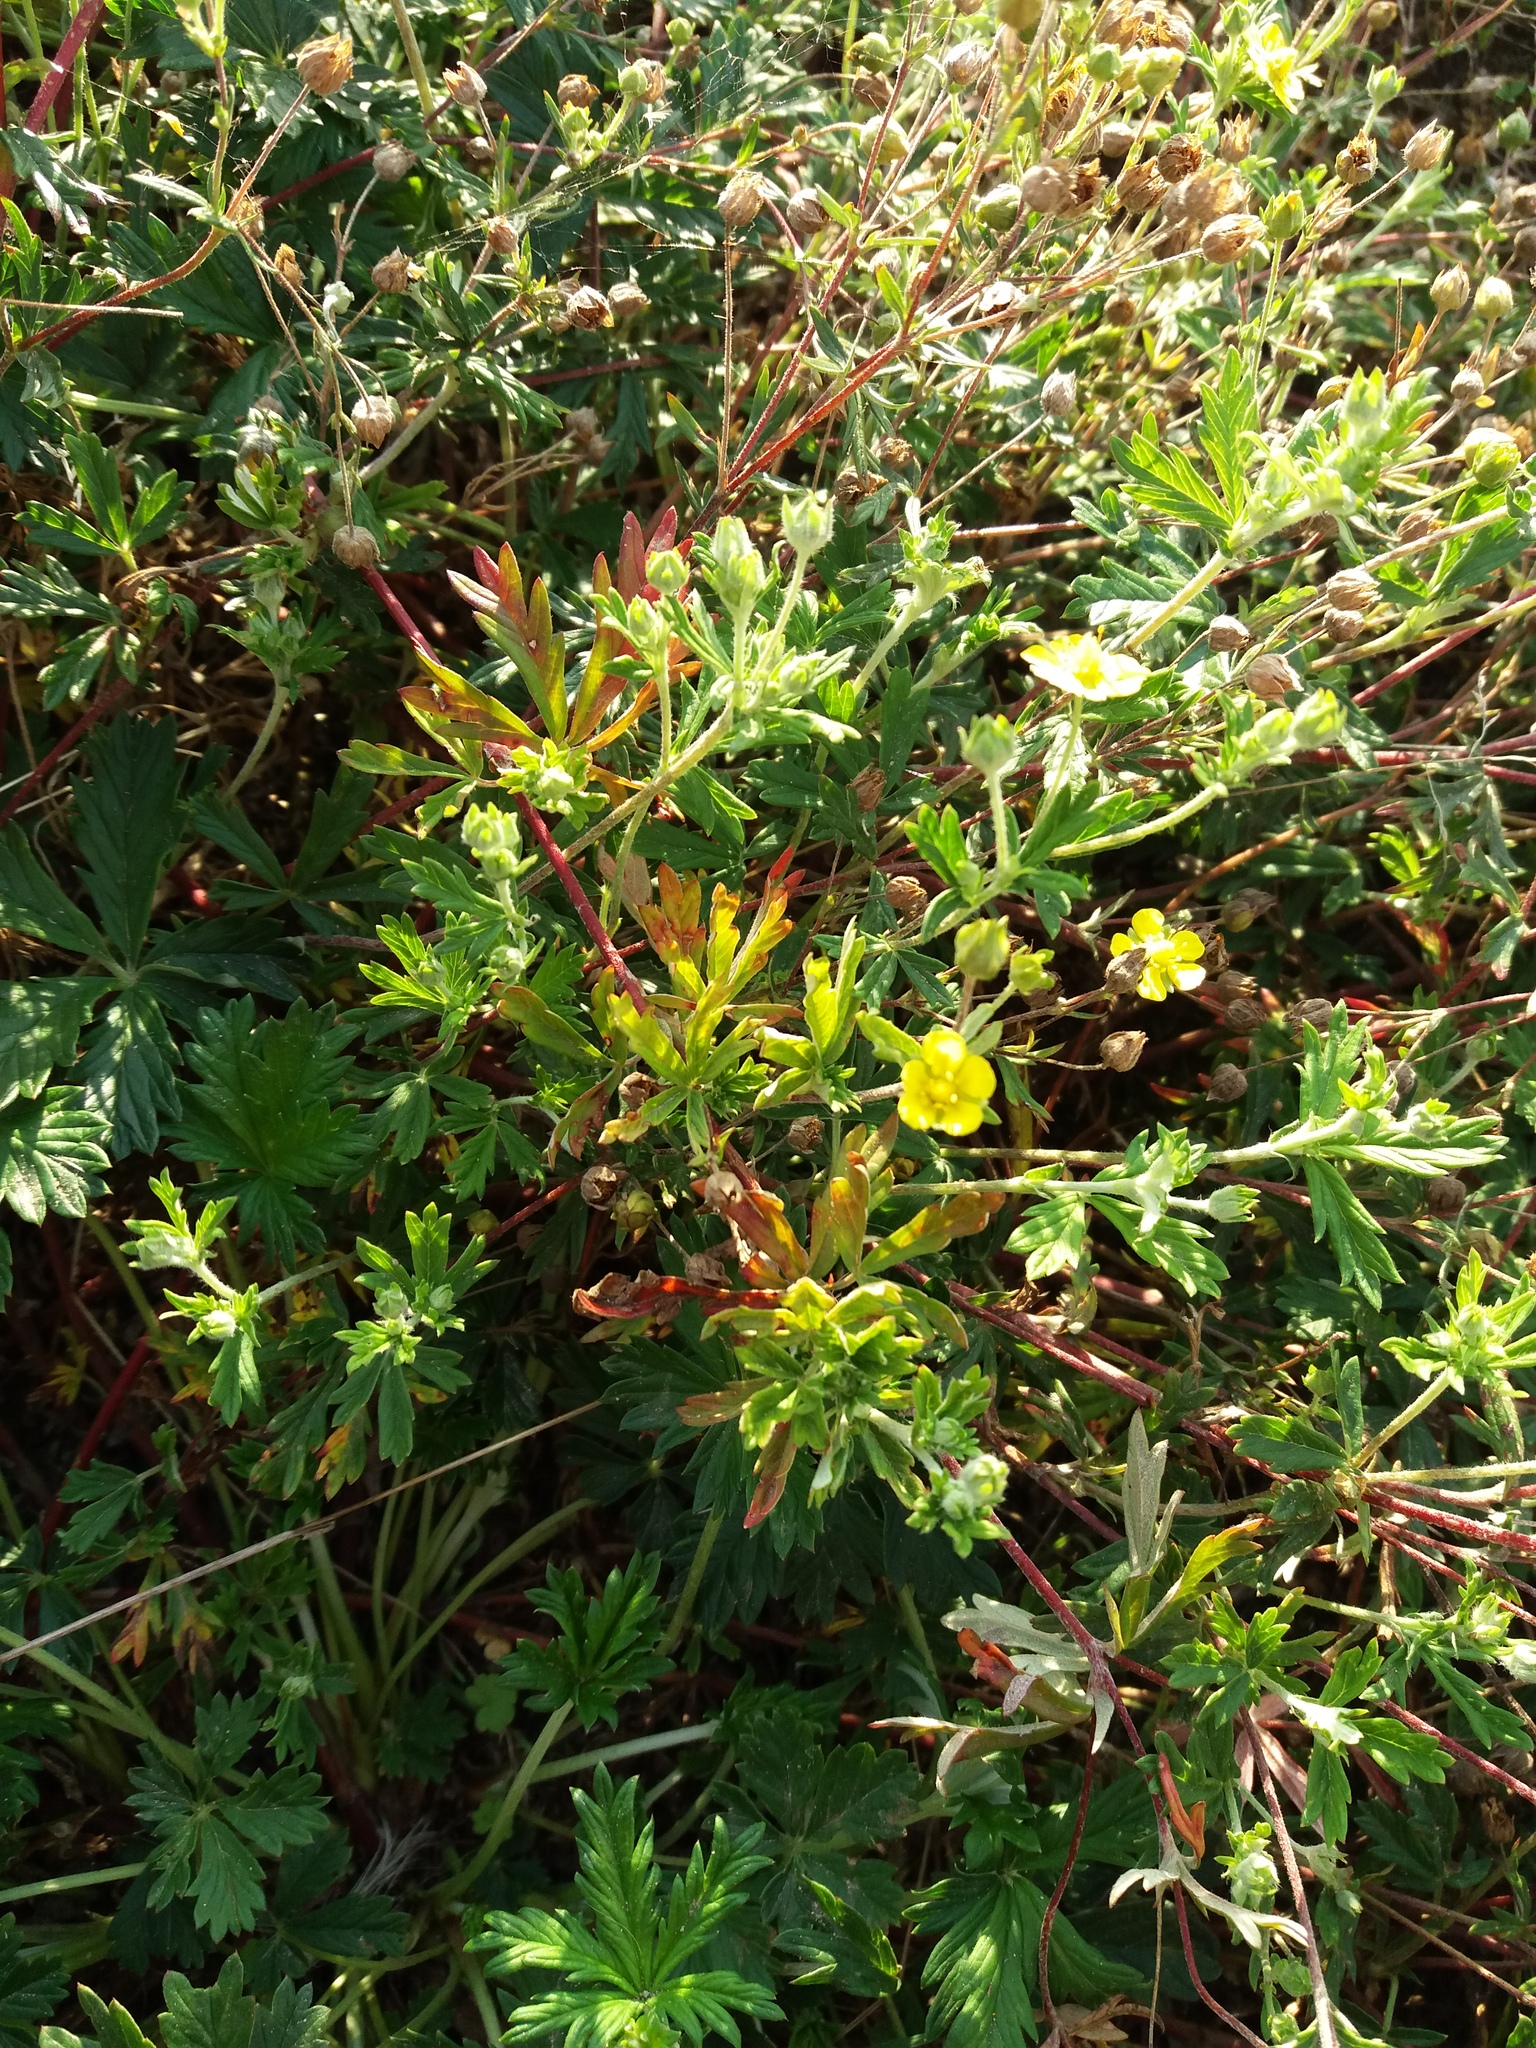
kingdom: Plantae
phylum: Tracheophyta
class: Magnoliopsida
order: Rosales
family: Rosaceae
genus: Potentilla
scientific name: Potentilla argentea
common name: Hoary cinquefoil
